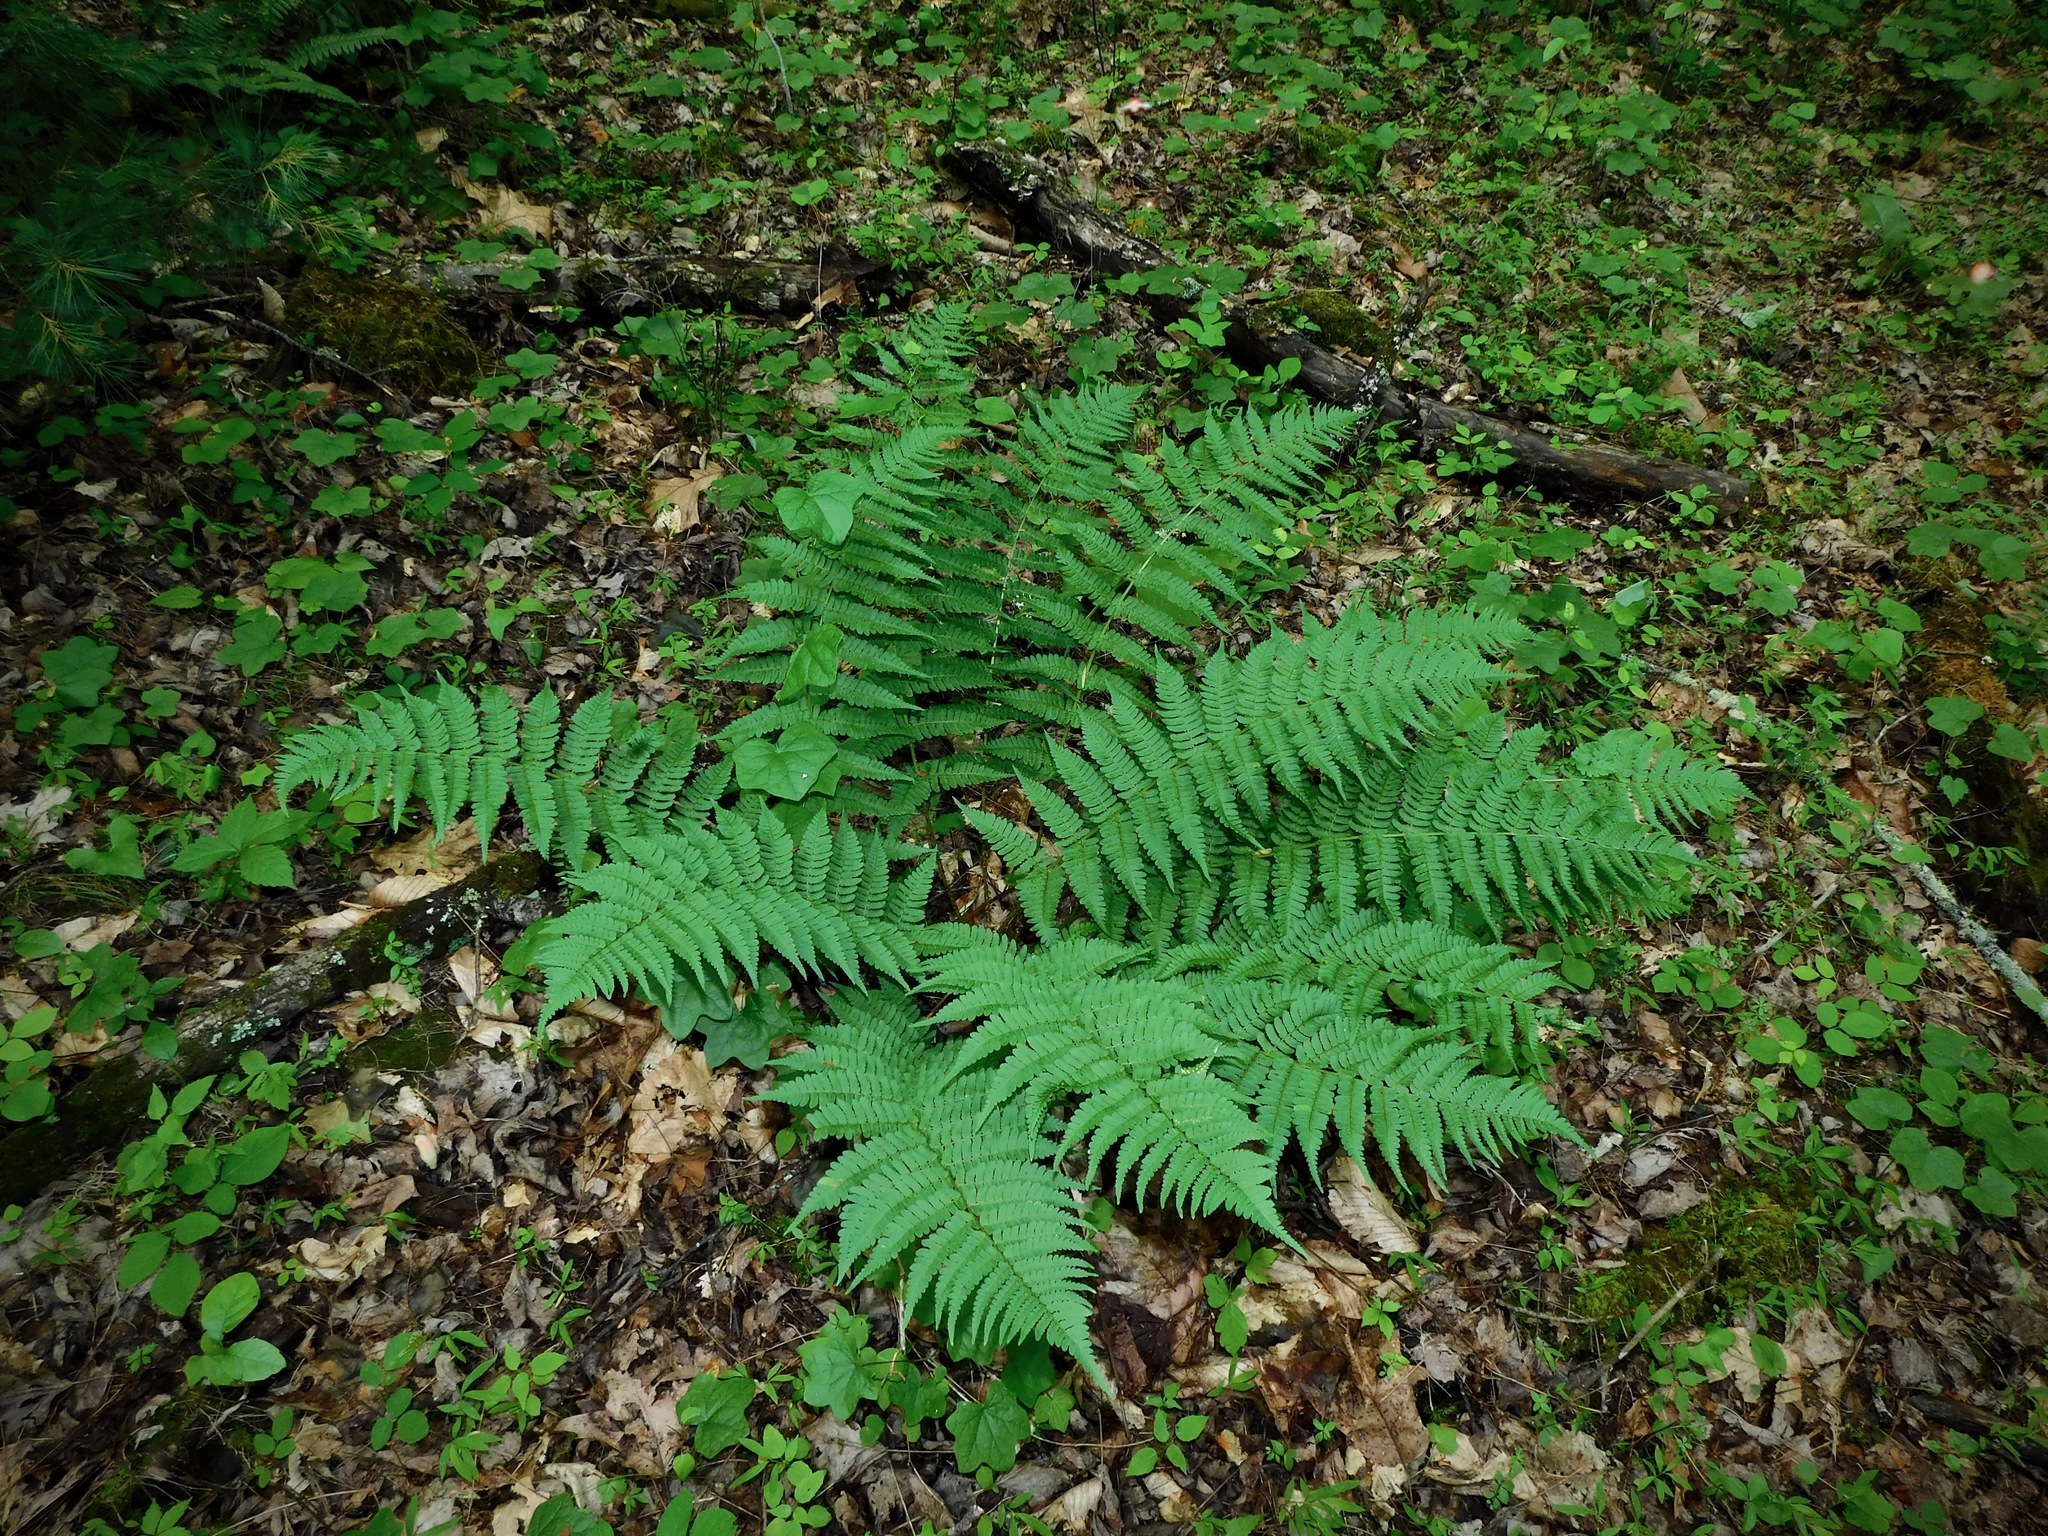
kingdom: Plantae
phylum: Tracheophyta
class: Polypodiopsida
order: Polypodiales
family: Dryopteridaceae
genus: Dryopteris
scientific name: Dryopteris marginalis
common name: Marginal wood fern
